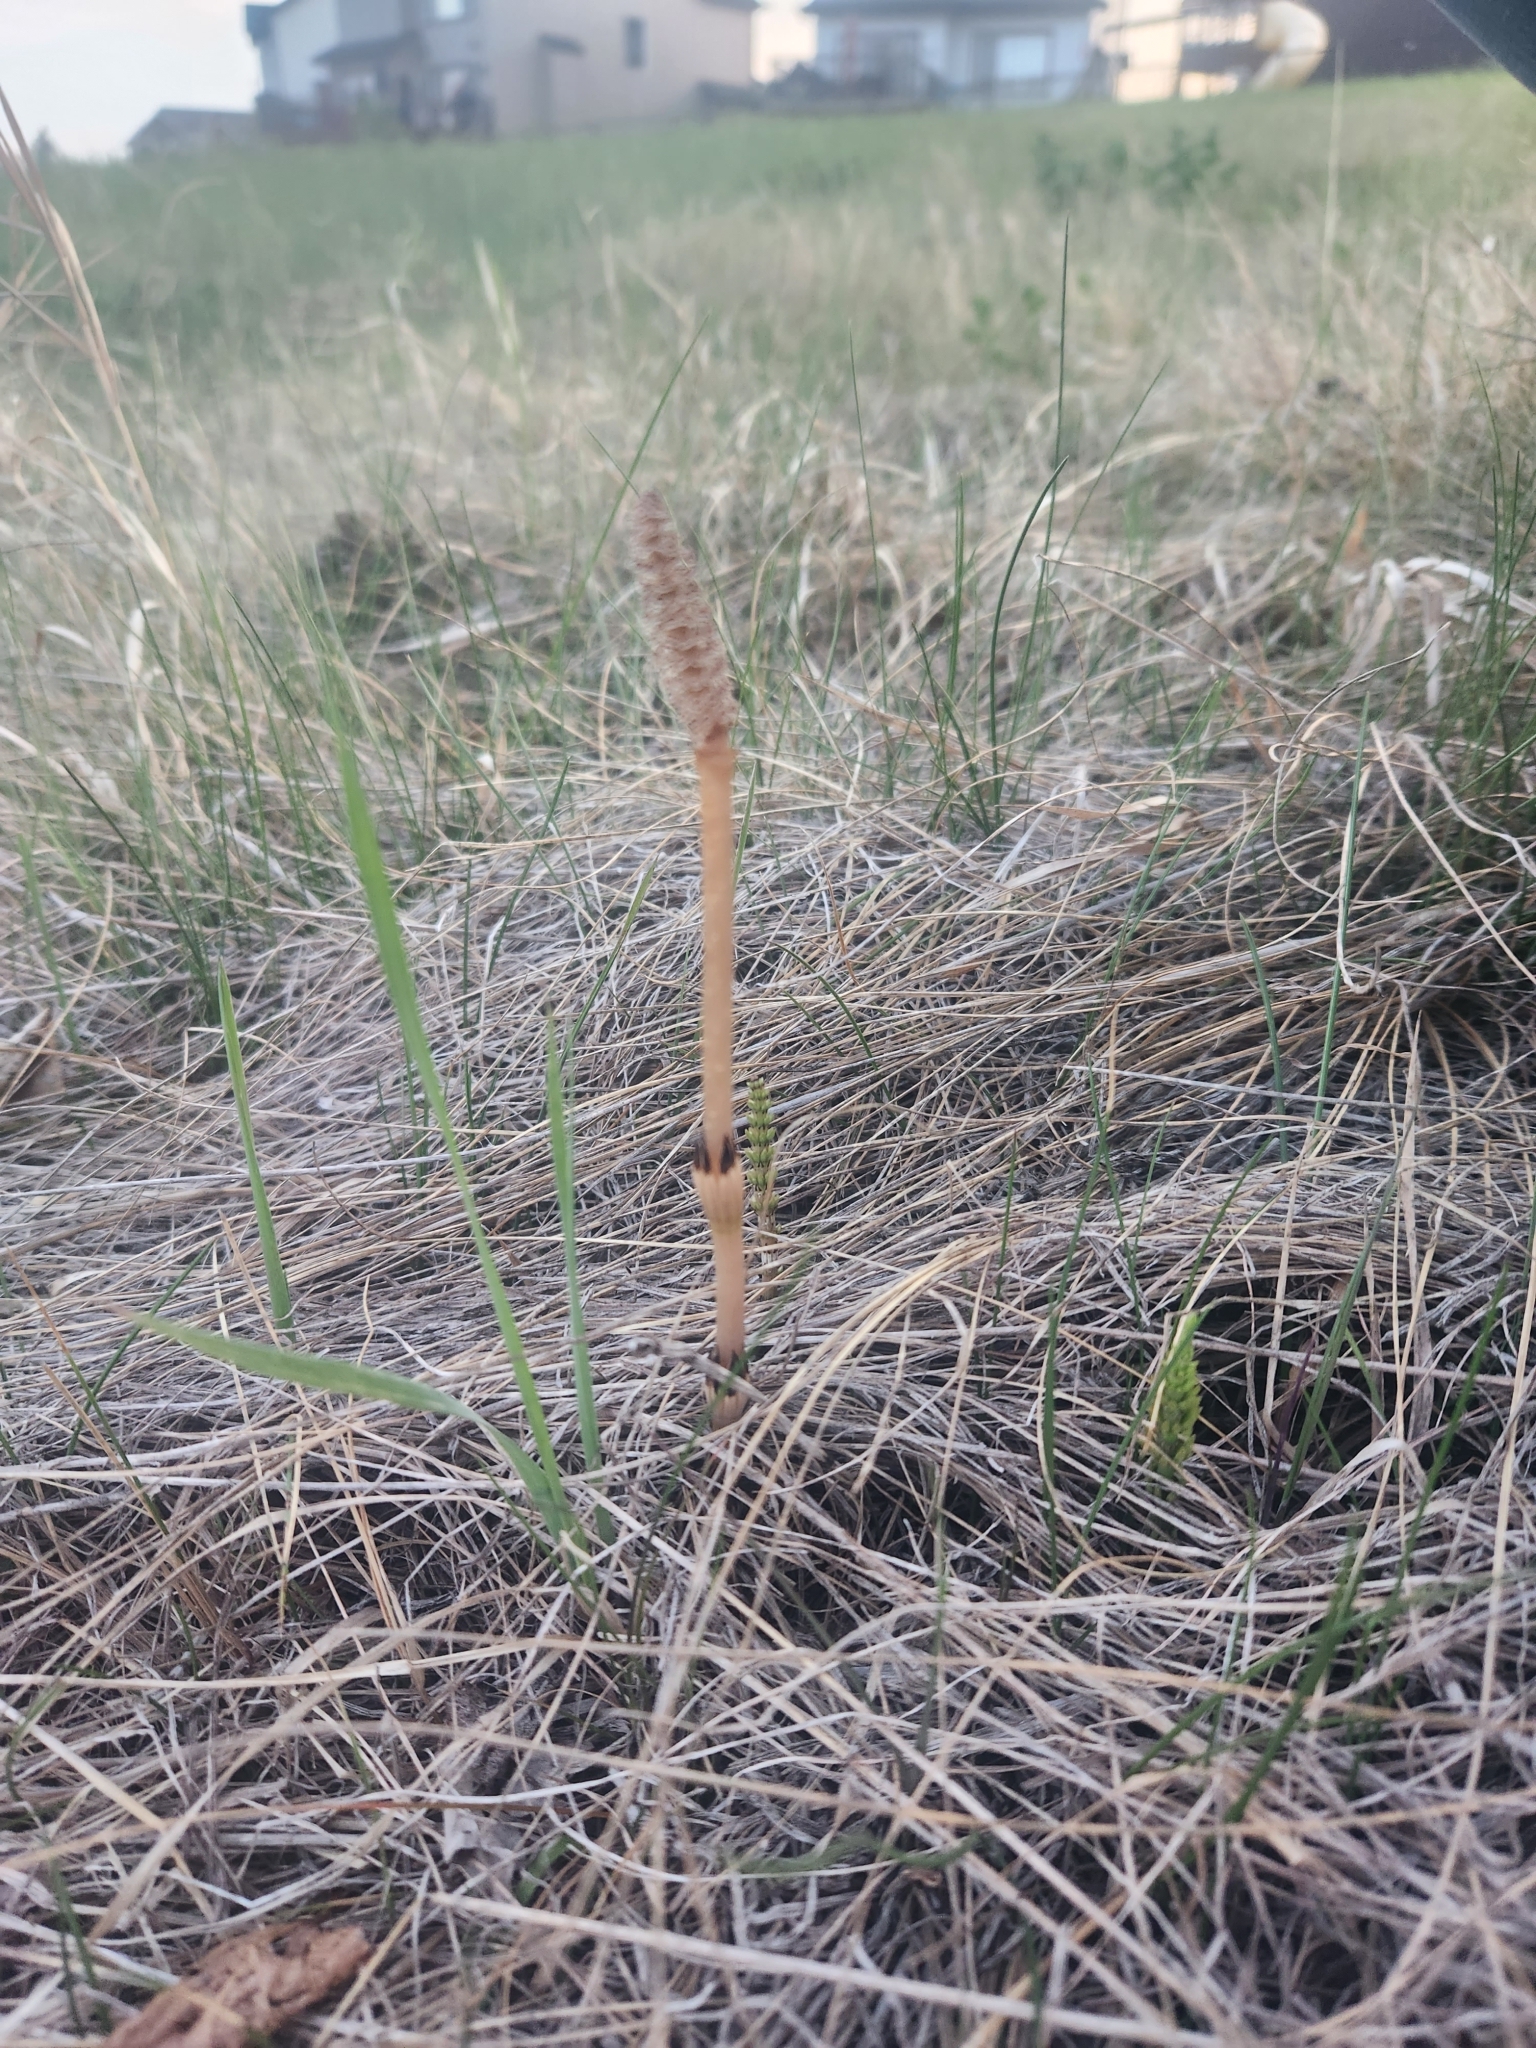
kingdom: Plantae
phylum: Tracheophyta
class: Polypodiopsida
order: Equisetales
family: Equisetaceae
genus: Equisetum
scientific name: Equisetum arvense
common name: Field horsetail
